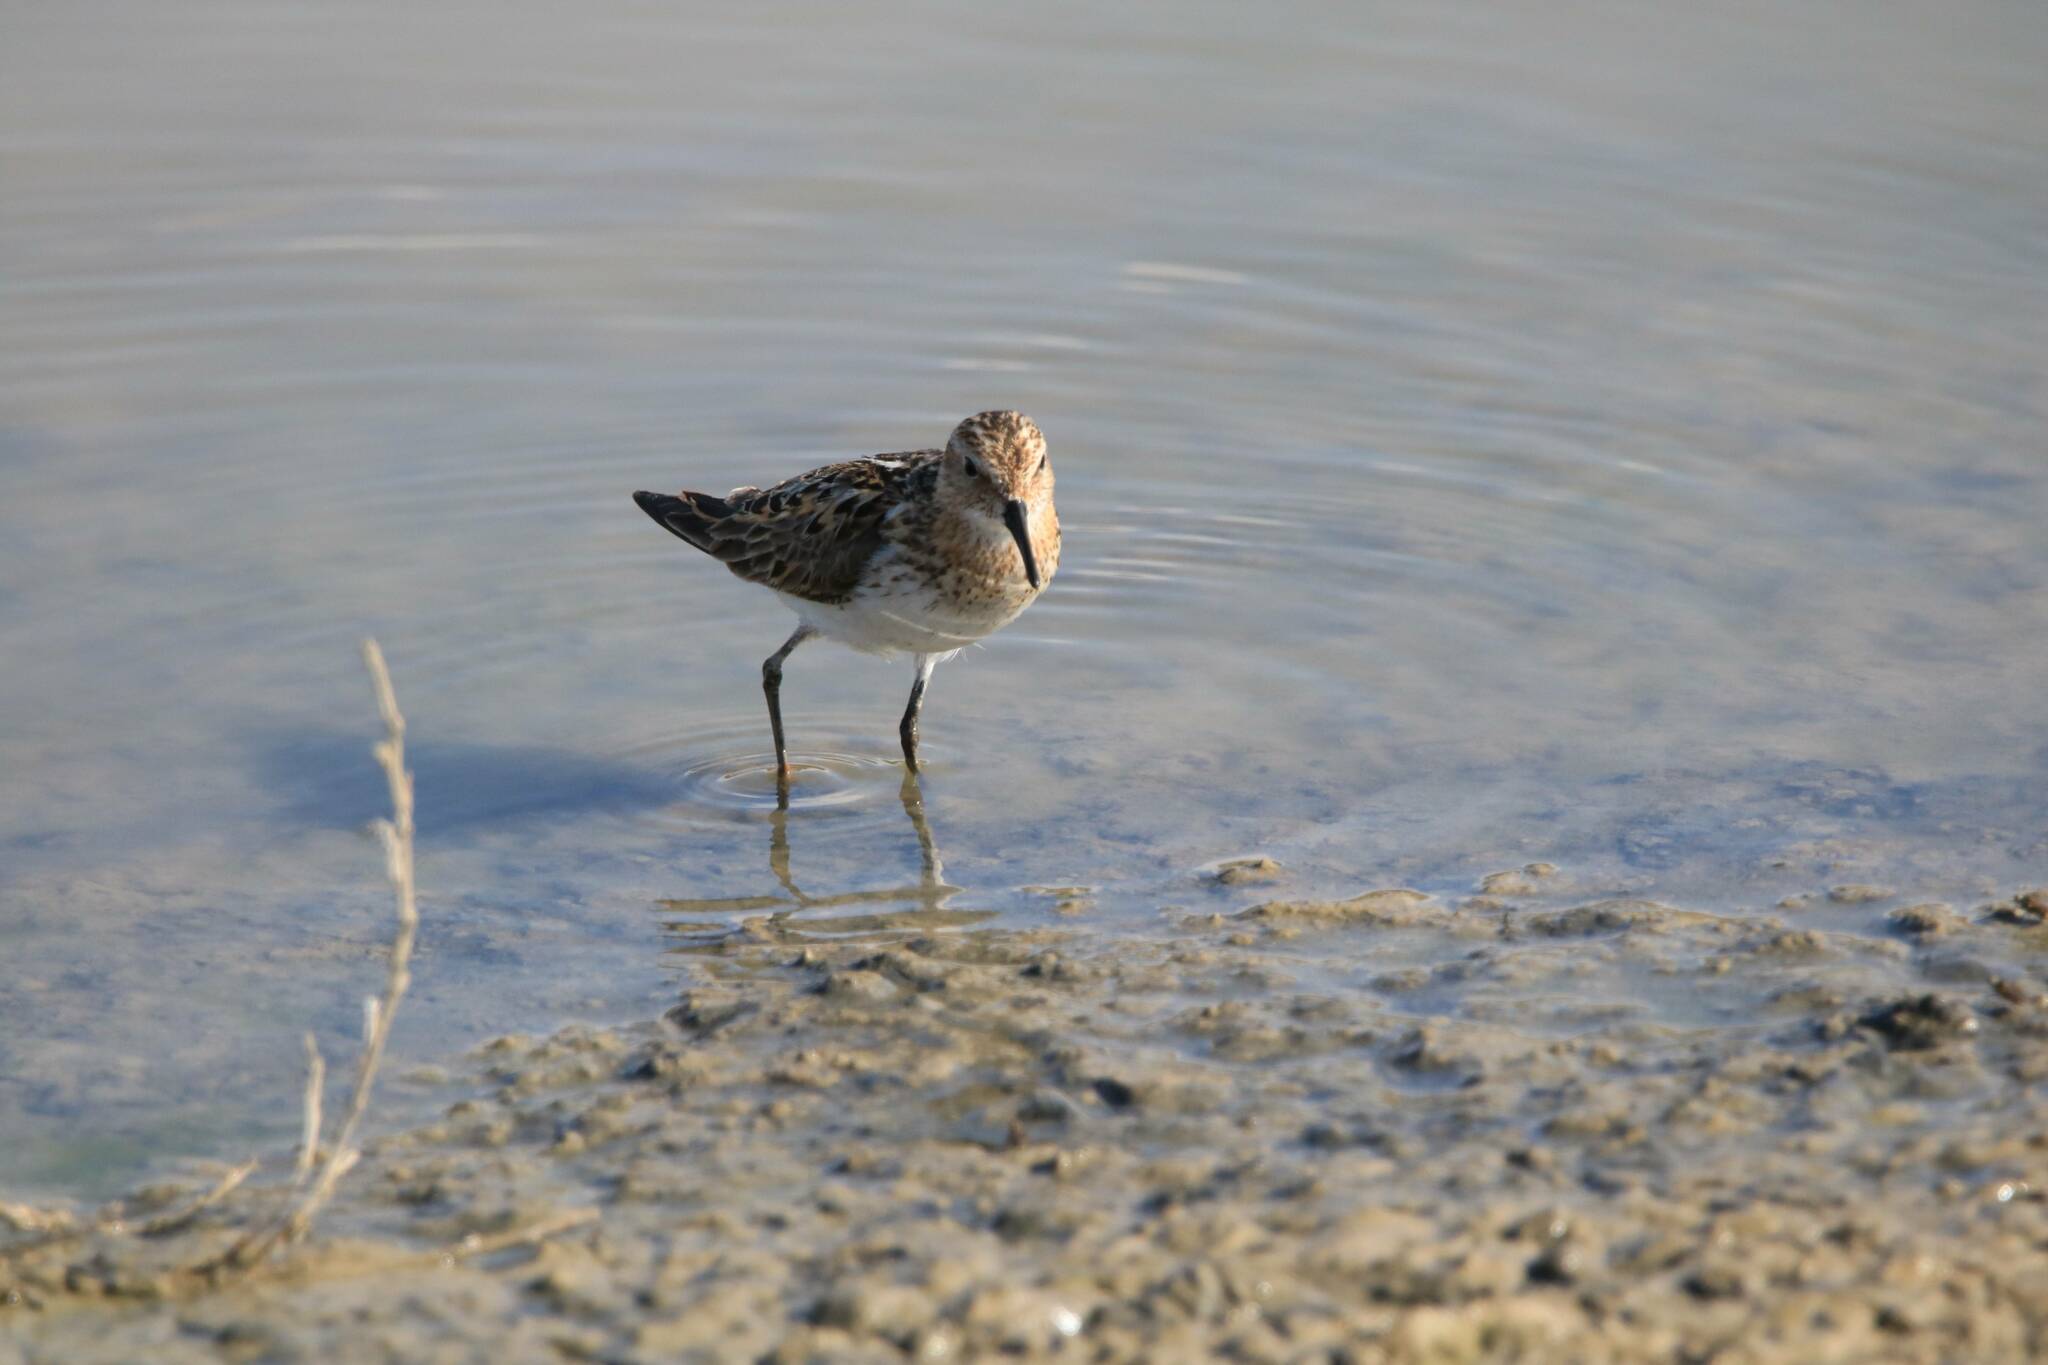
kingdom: Animalia
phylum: Chordata
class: Aves
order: Charadriiformes
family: Scolopacidae
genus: Calidris
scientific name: Calidris minuta
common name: Little stint
